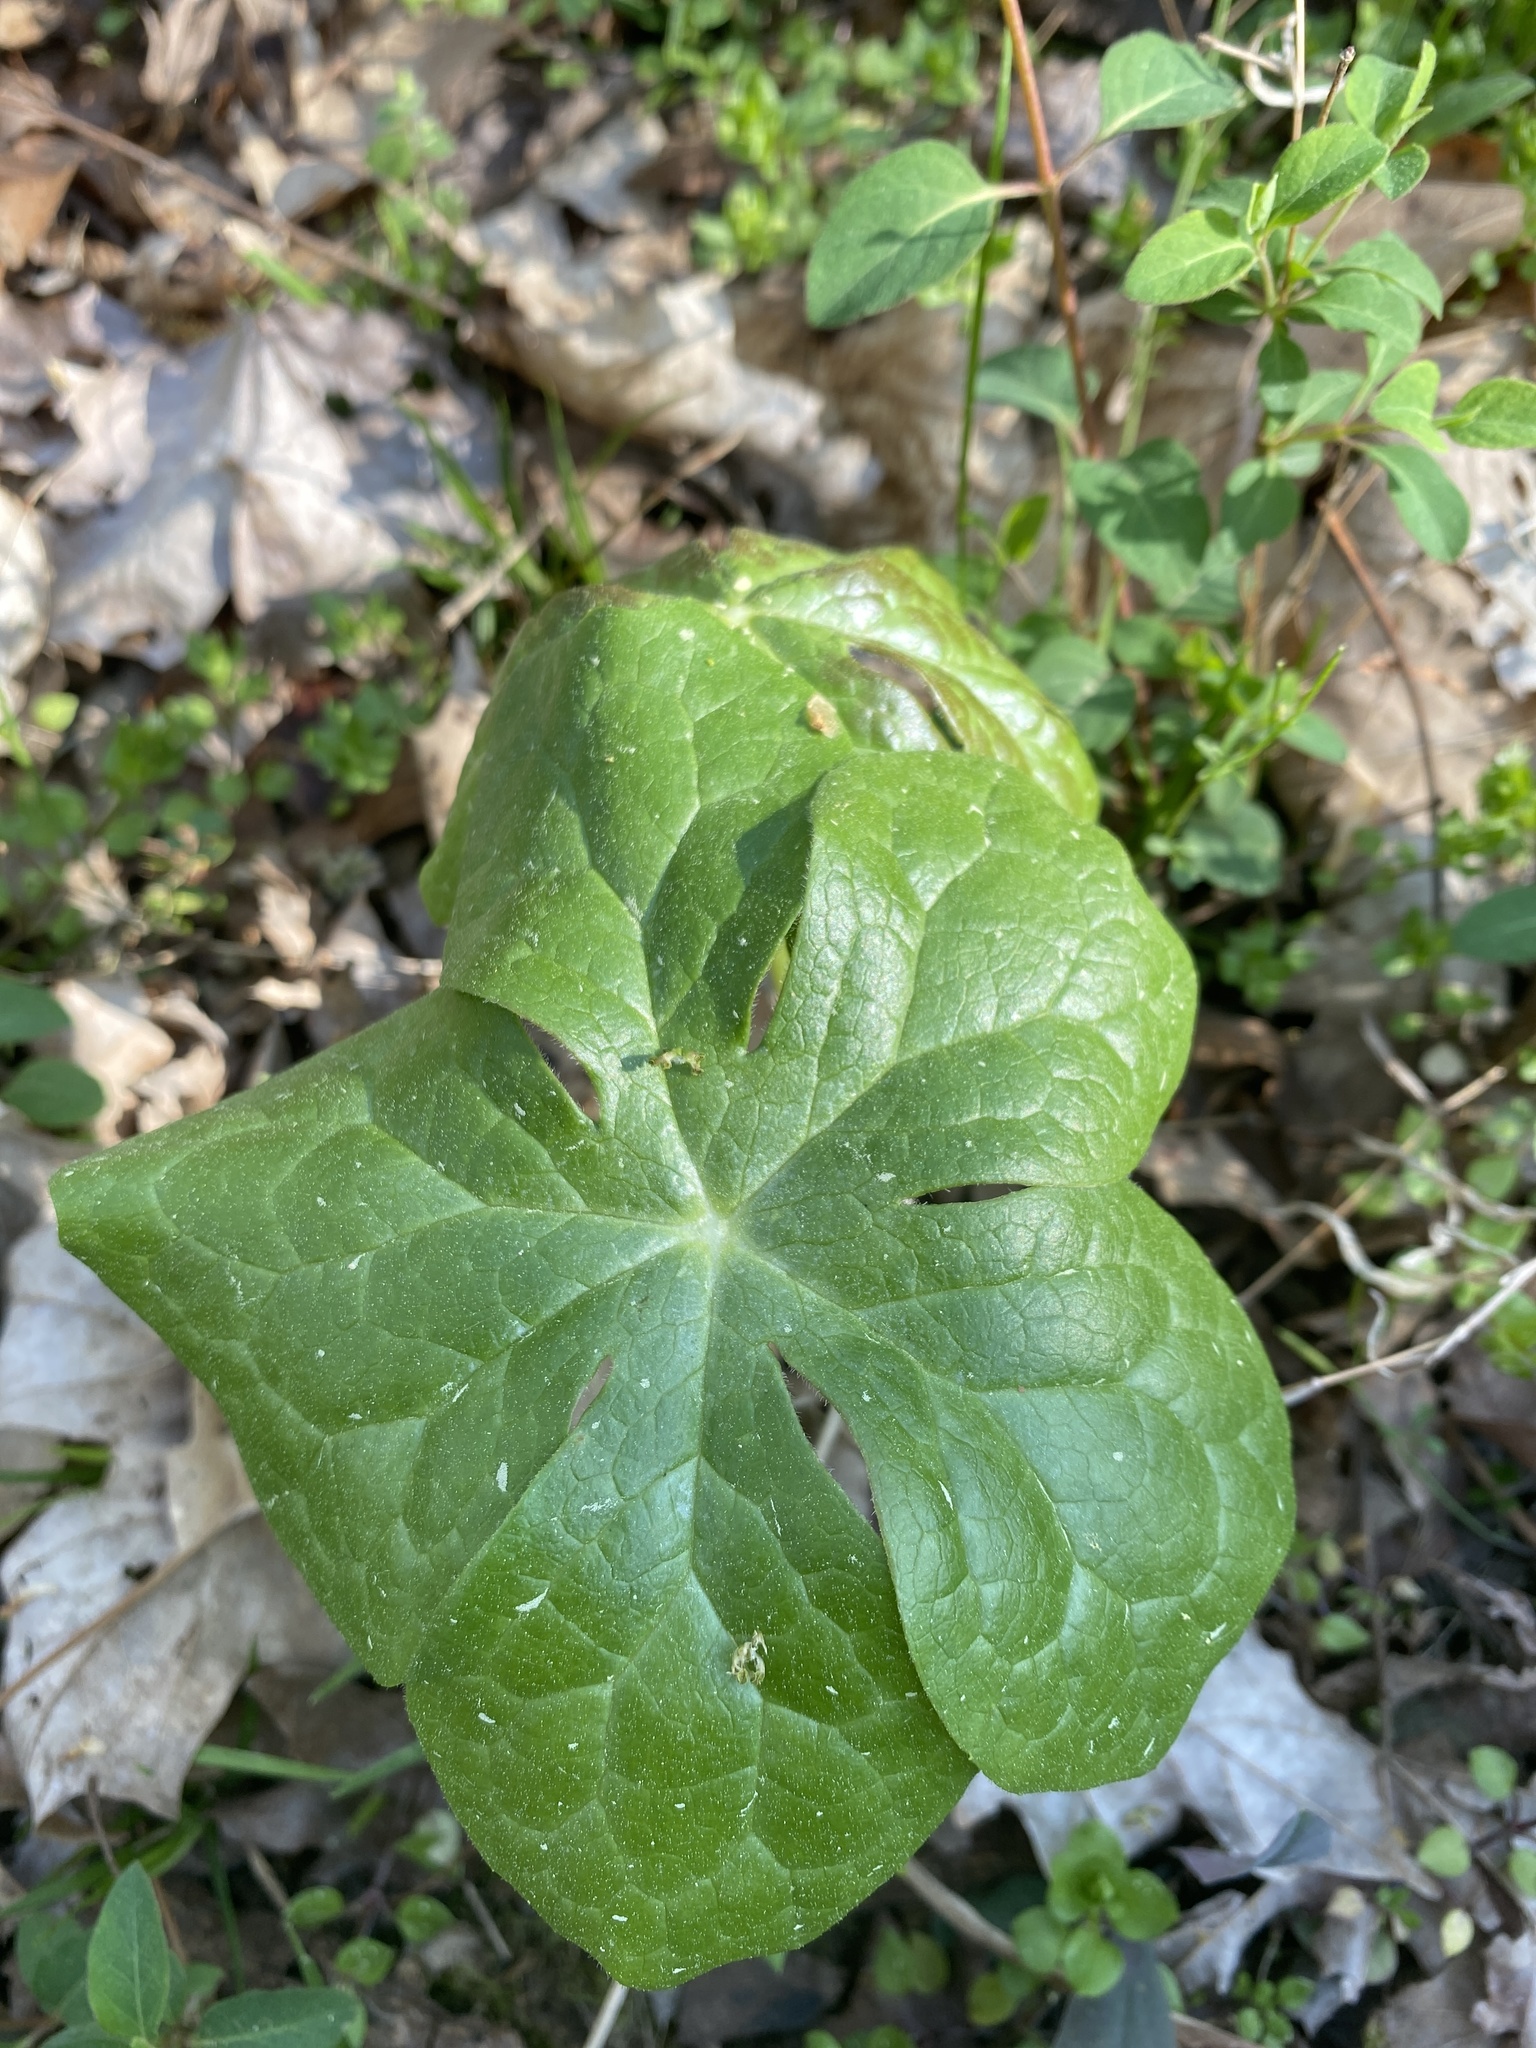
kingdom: Plantae
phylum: Tracheophyta
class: Magnoliopsida
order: Ranunculales
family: Berberidaceae
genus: Podophyllum
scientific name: Podophyllum peltatum
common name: Wild mandrake
